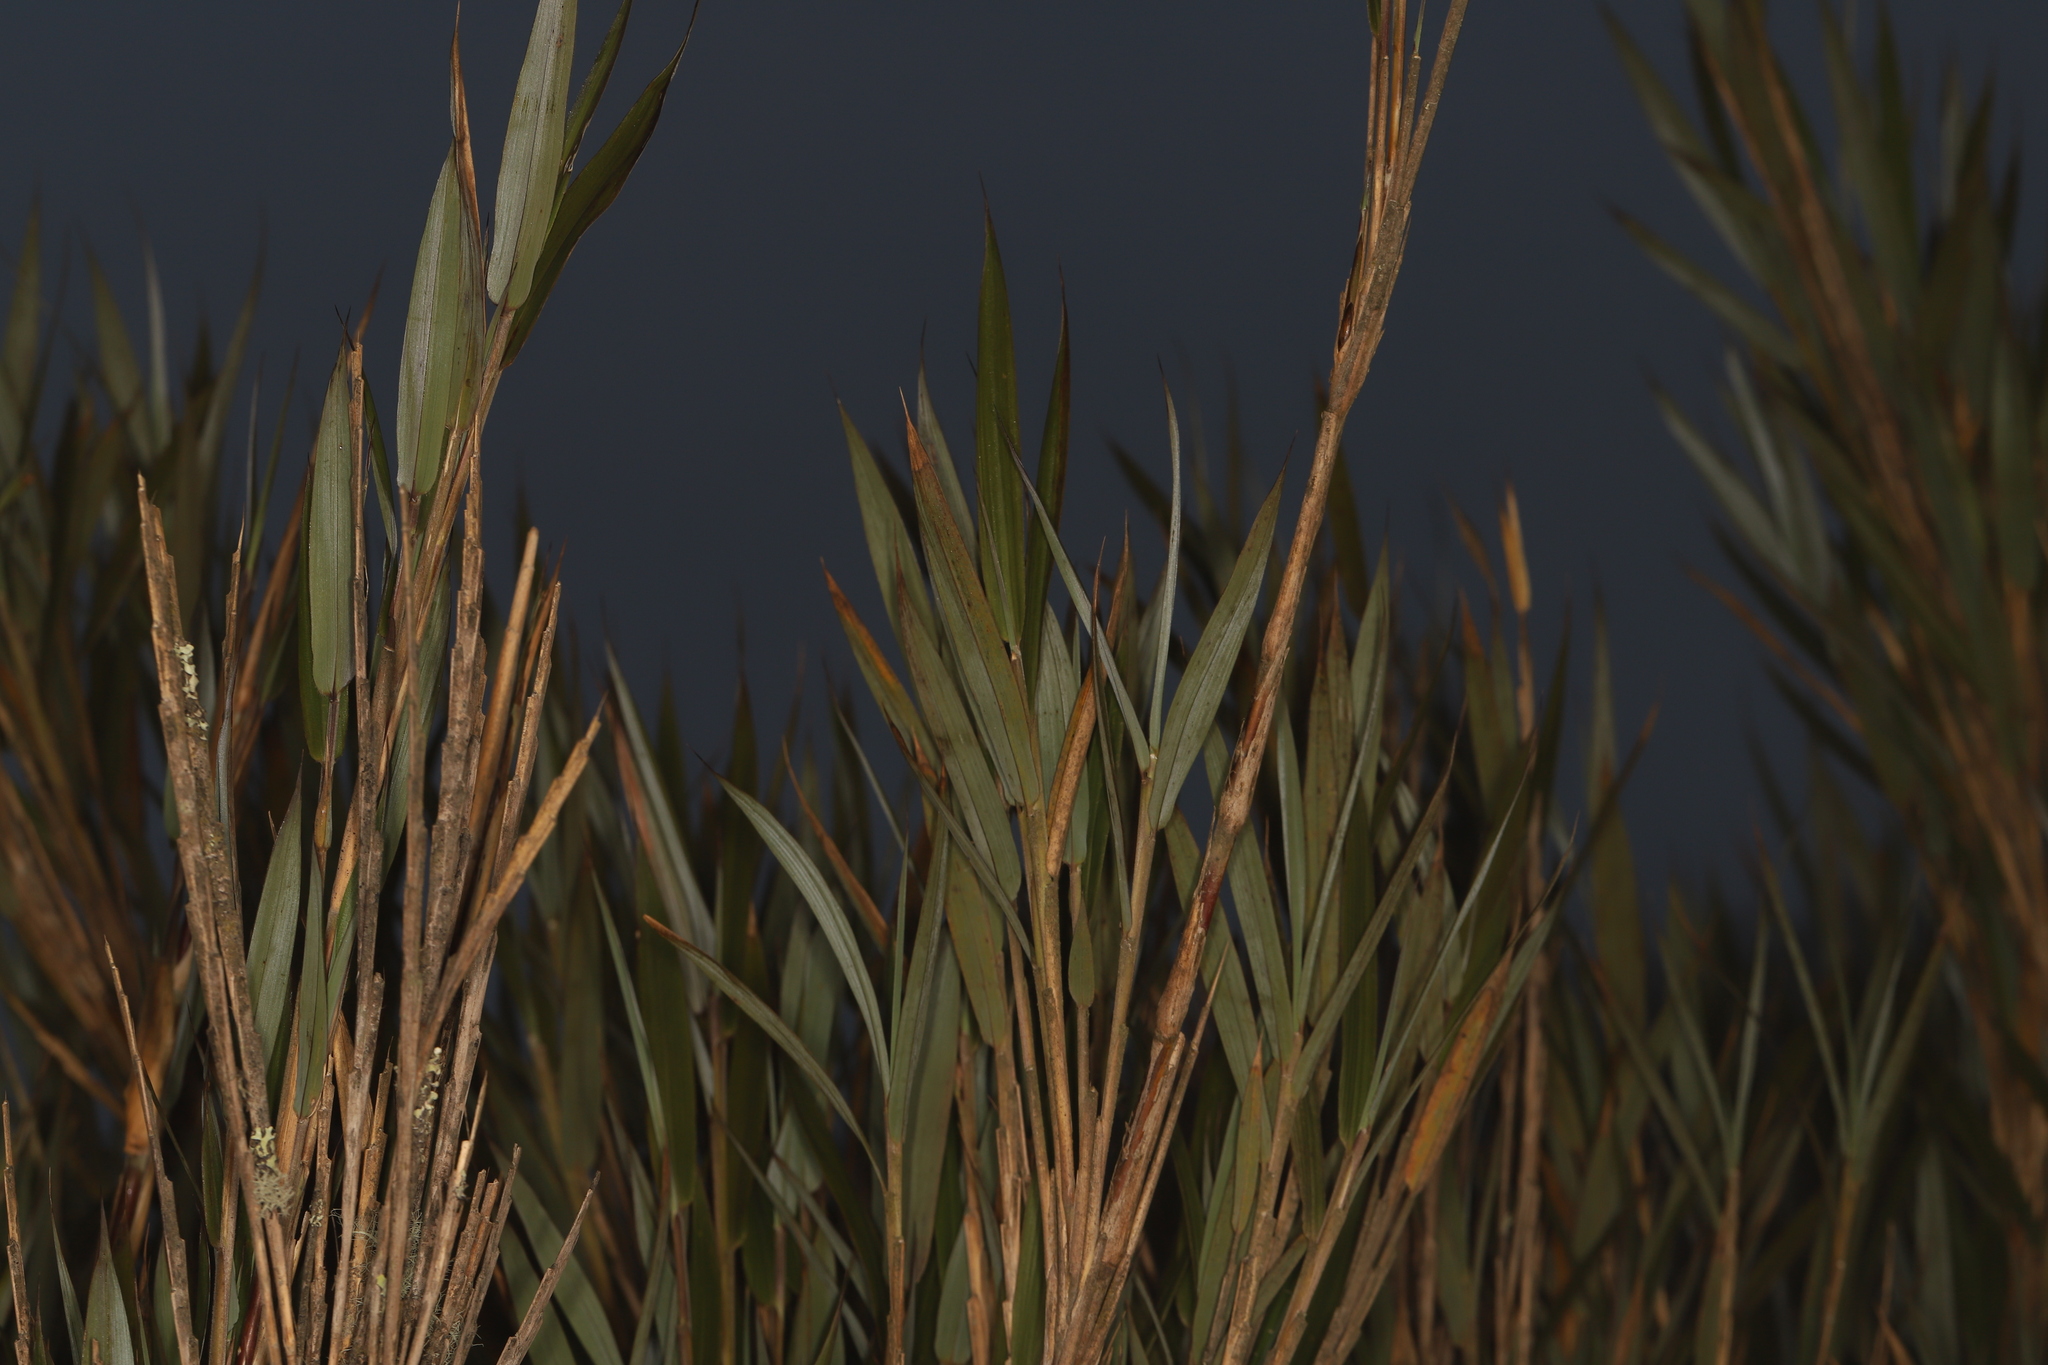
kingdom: Plantae
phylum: Tracheophyta
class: Liliopsida
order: Poales
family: Poaceae
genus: Chusquea
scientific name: Chusquea tessellata
